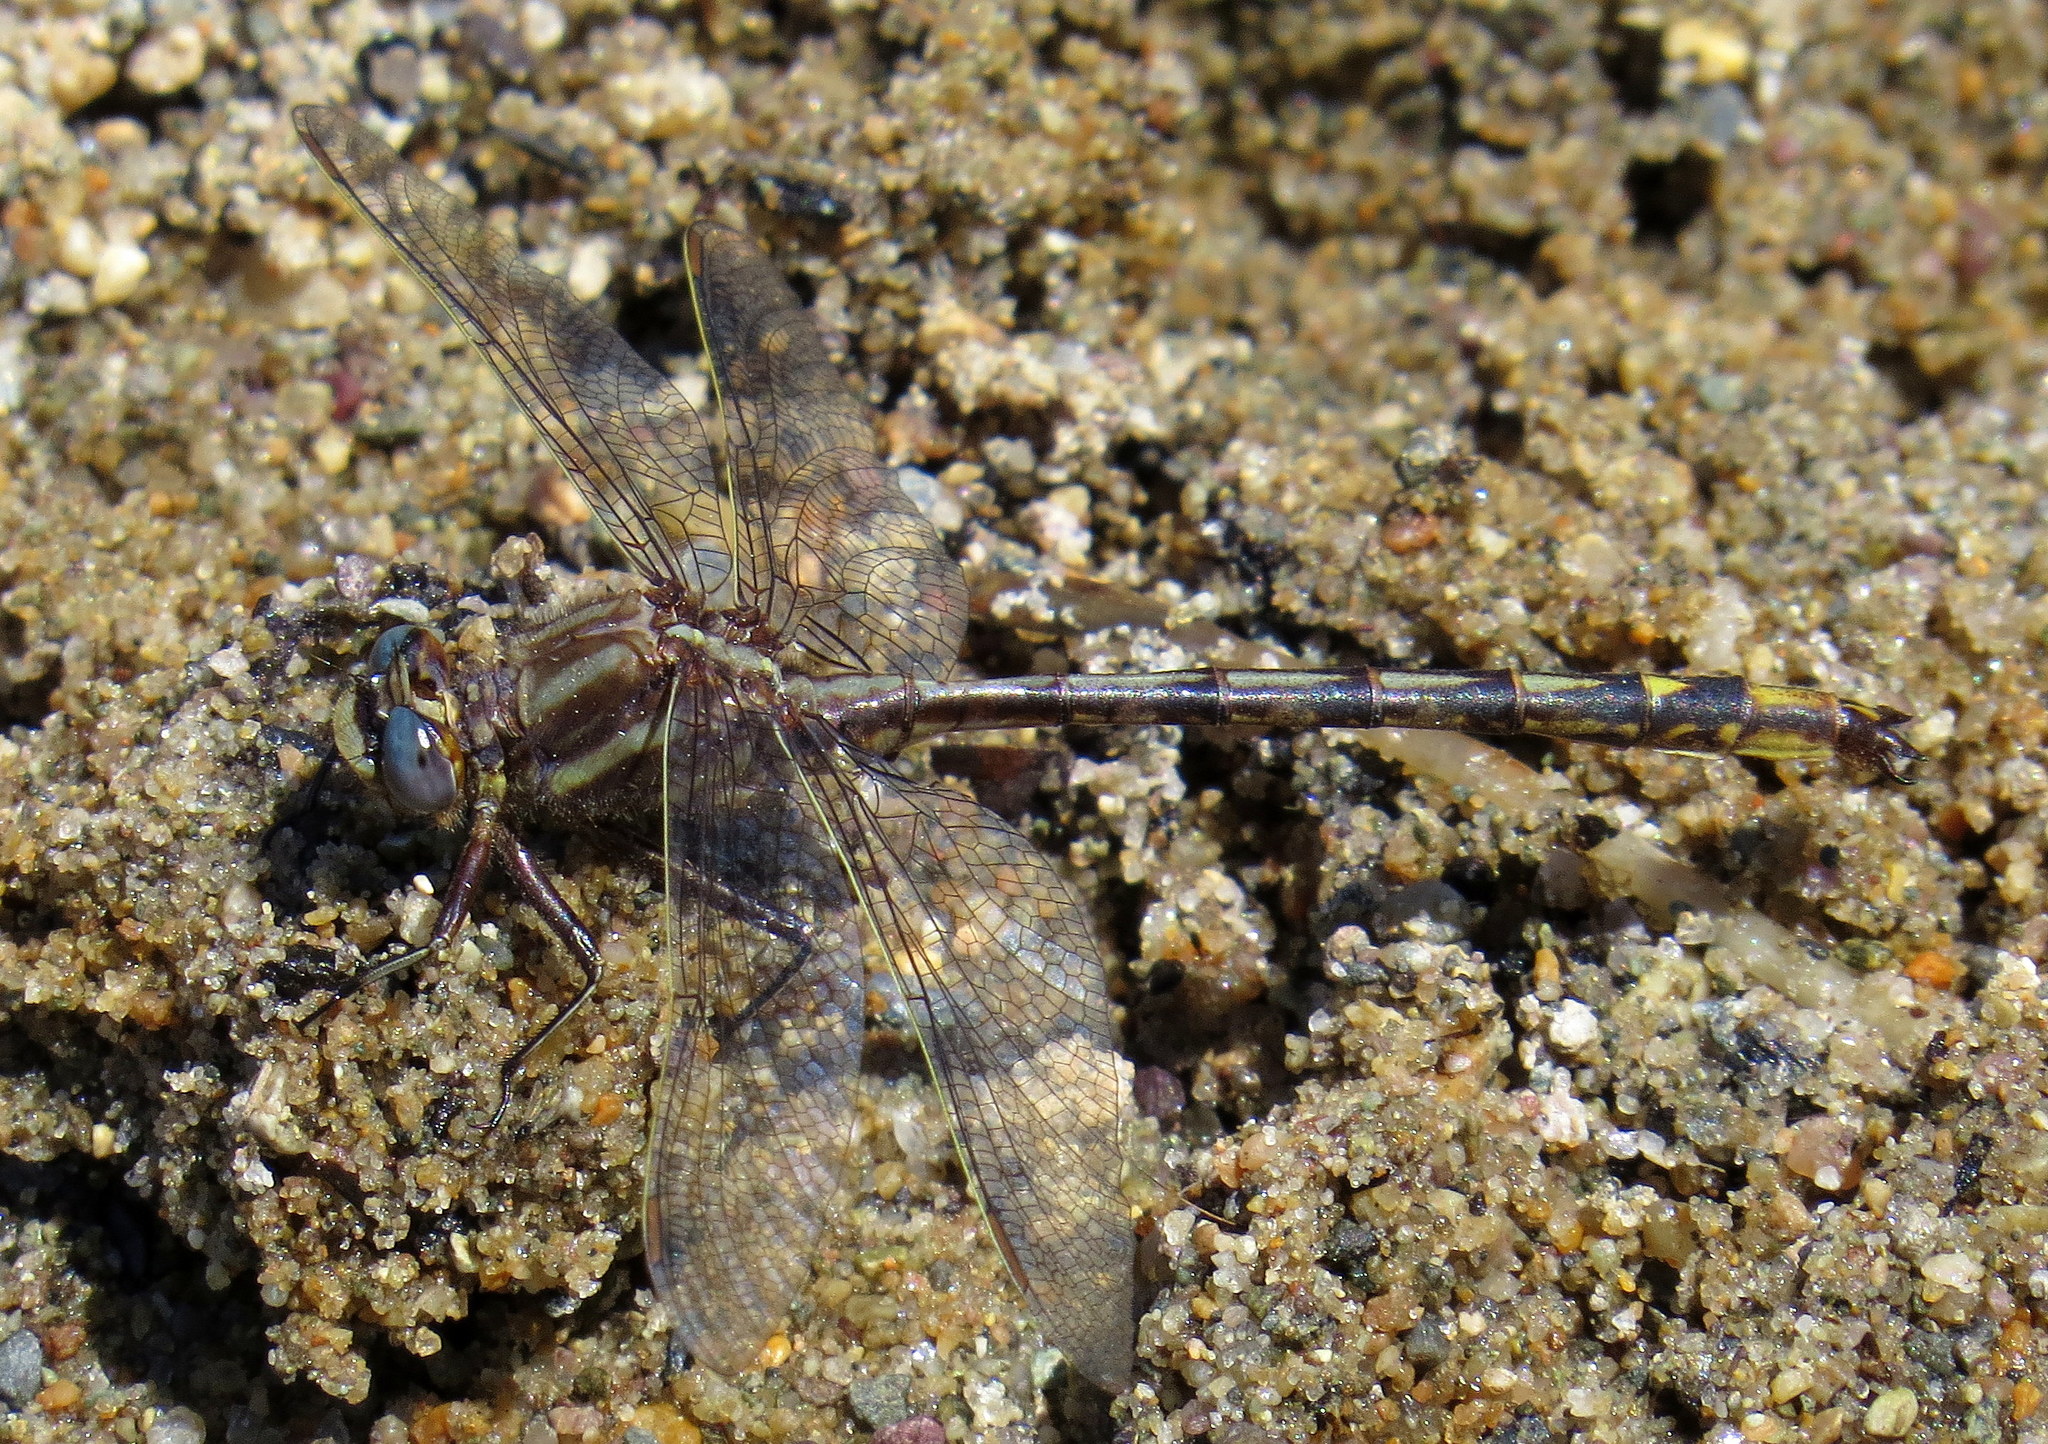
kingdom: Animalia
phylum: Arthropoda
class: Insecta
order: Odonata
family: Gomphidae
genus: Phanogomphus
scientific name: Phanogomphus exilis
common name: Lancet clubtail
